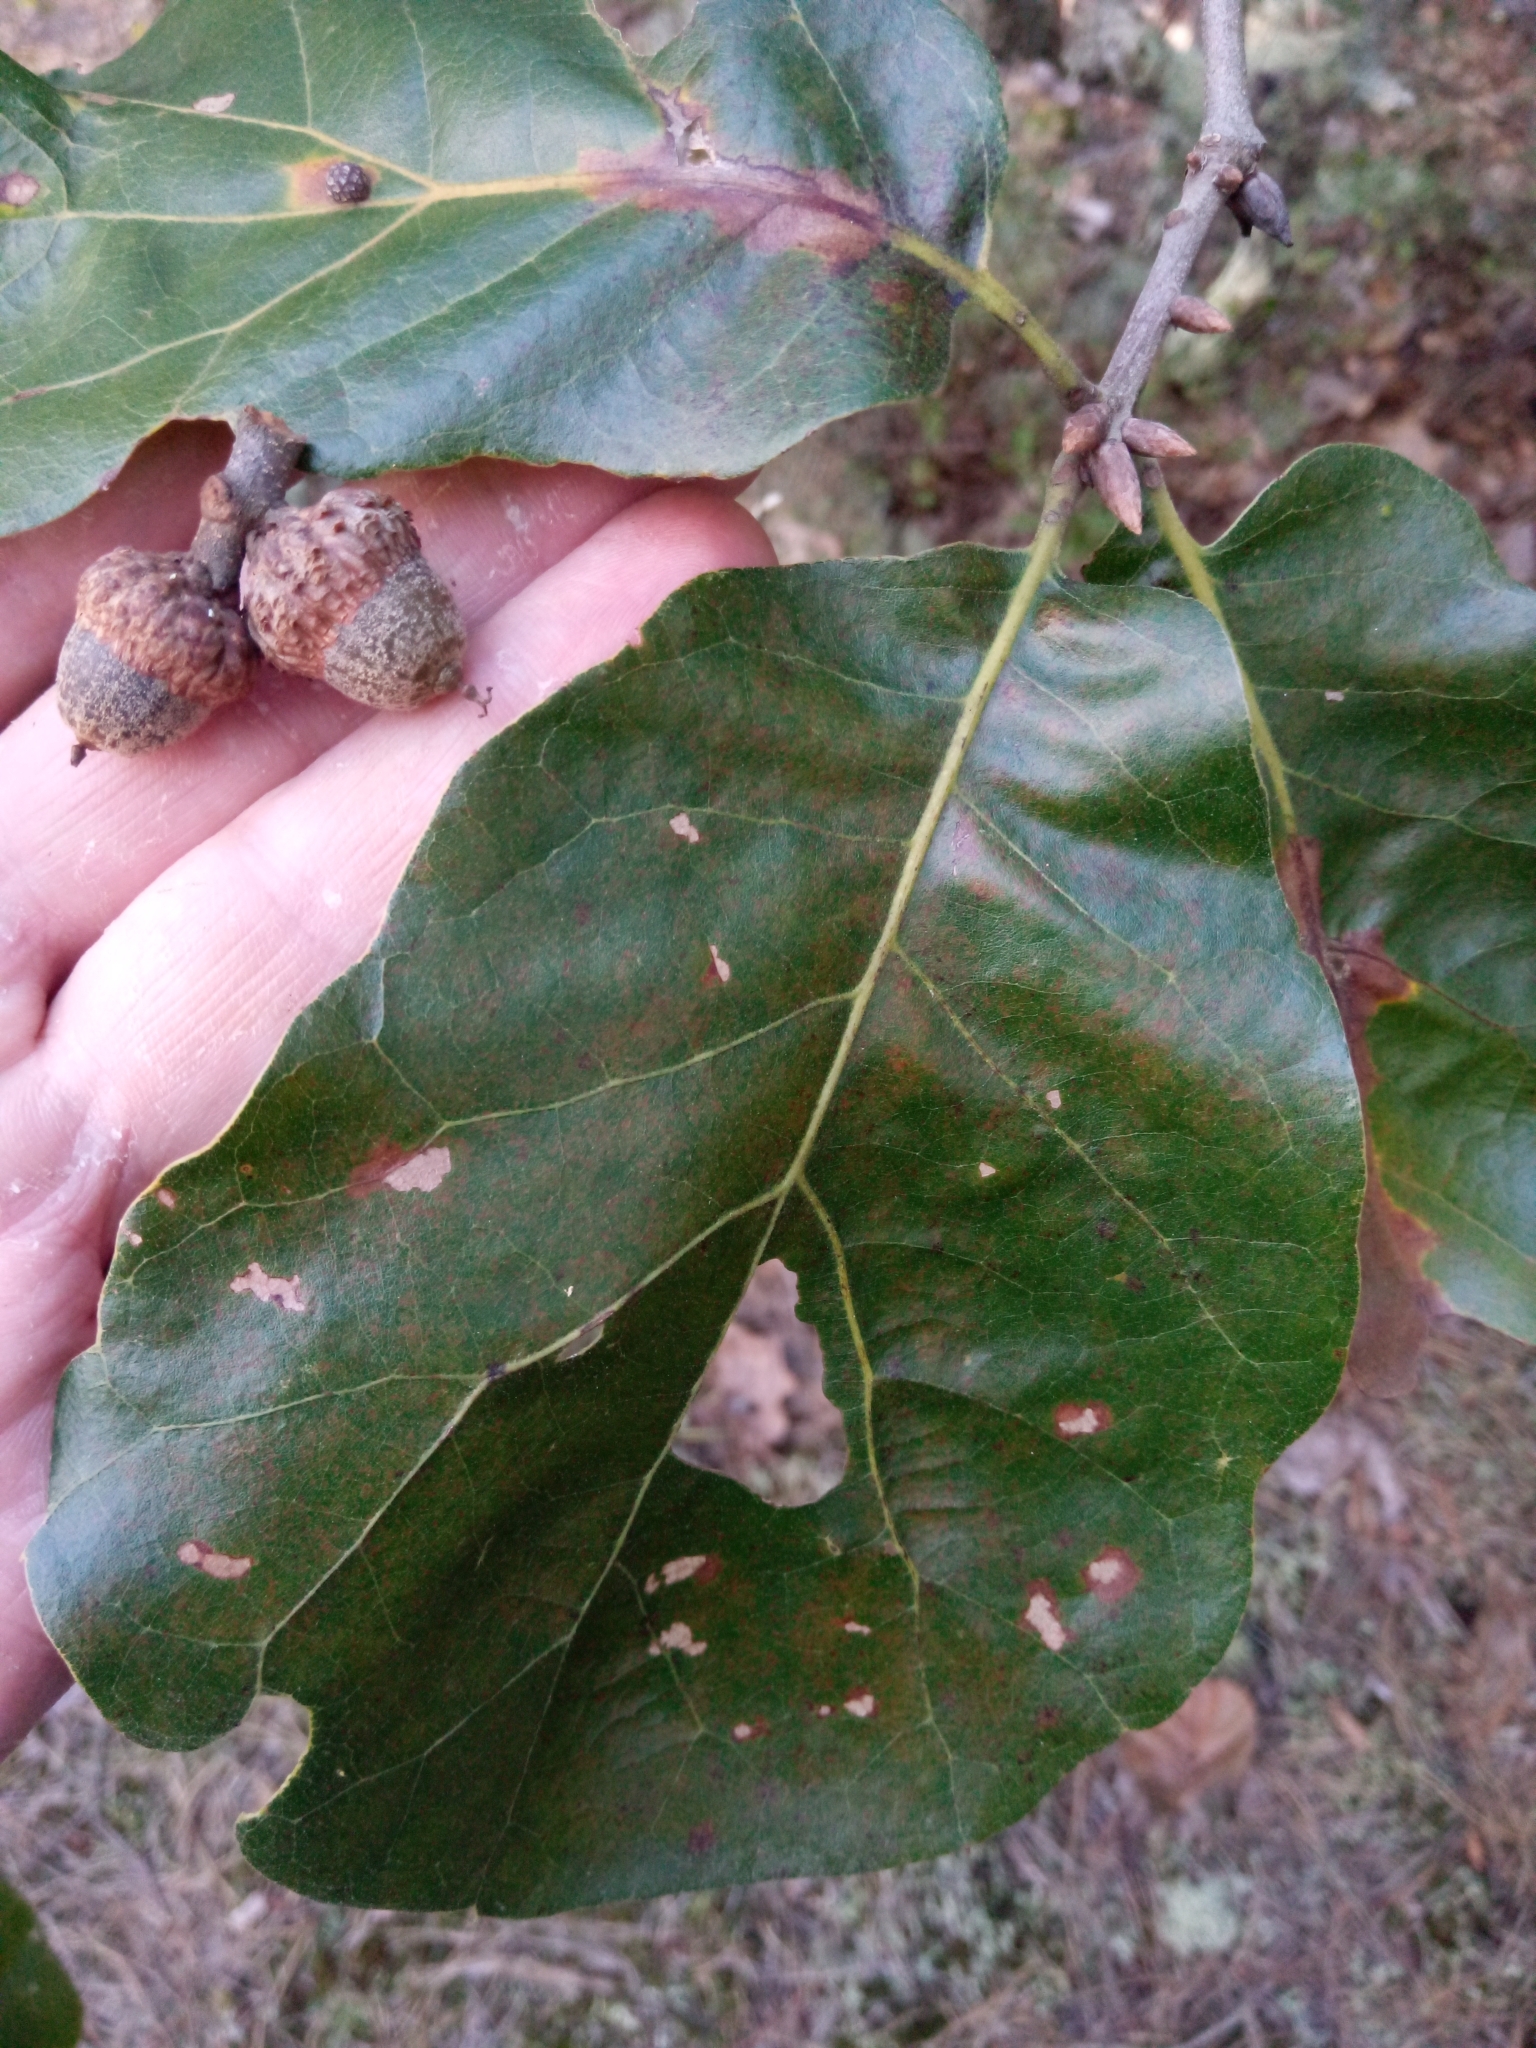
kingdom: Plantae
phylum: Tracheophyta
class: Magnoliopsida
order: Fagales
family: Fagaceae
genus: Quercus
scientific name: Quercus marilandica
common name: Blackjack oak
